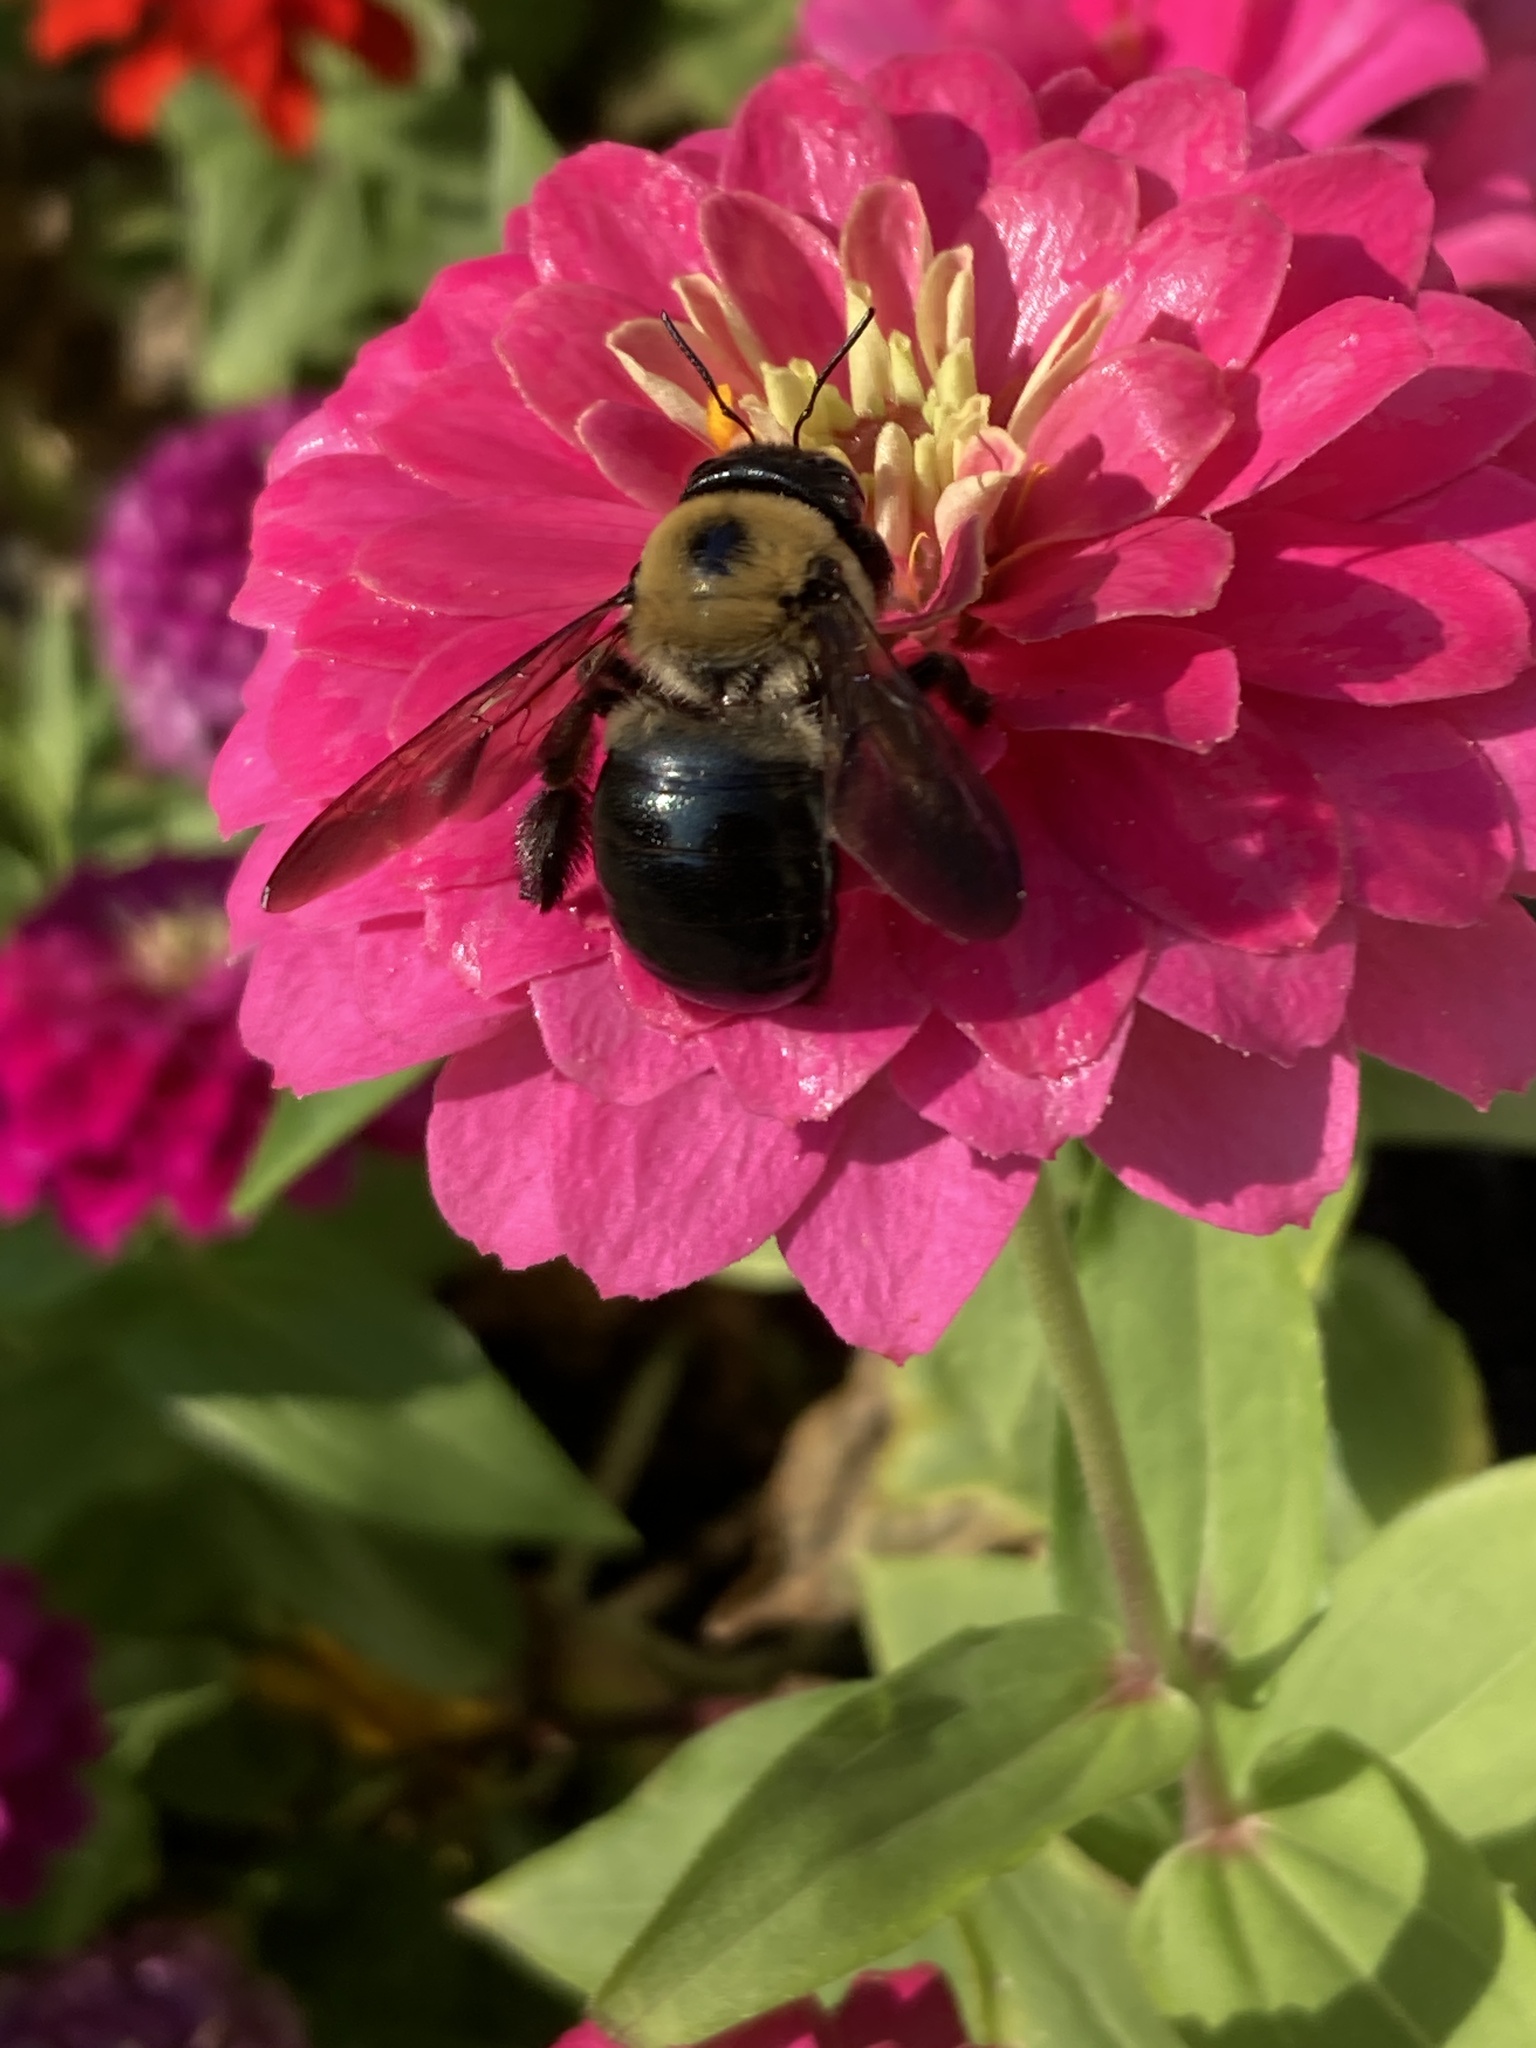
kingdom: Animalia
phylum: Arthropoda
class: Insecta
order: Hymenoptera
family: Apidae
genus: Xylocopa
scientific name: Xylocopa virginica
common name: Carpenter bee
